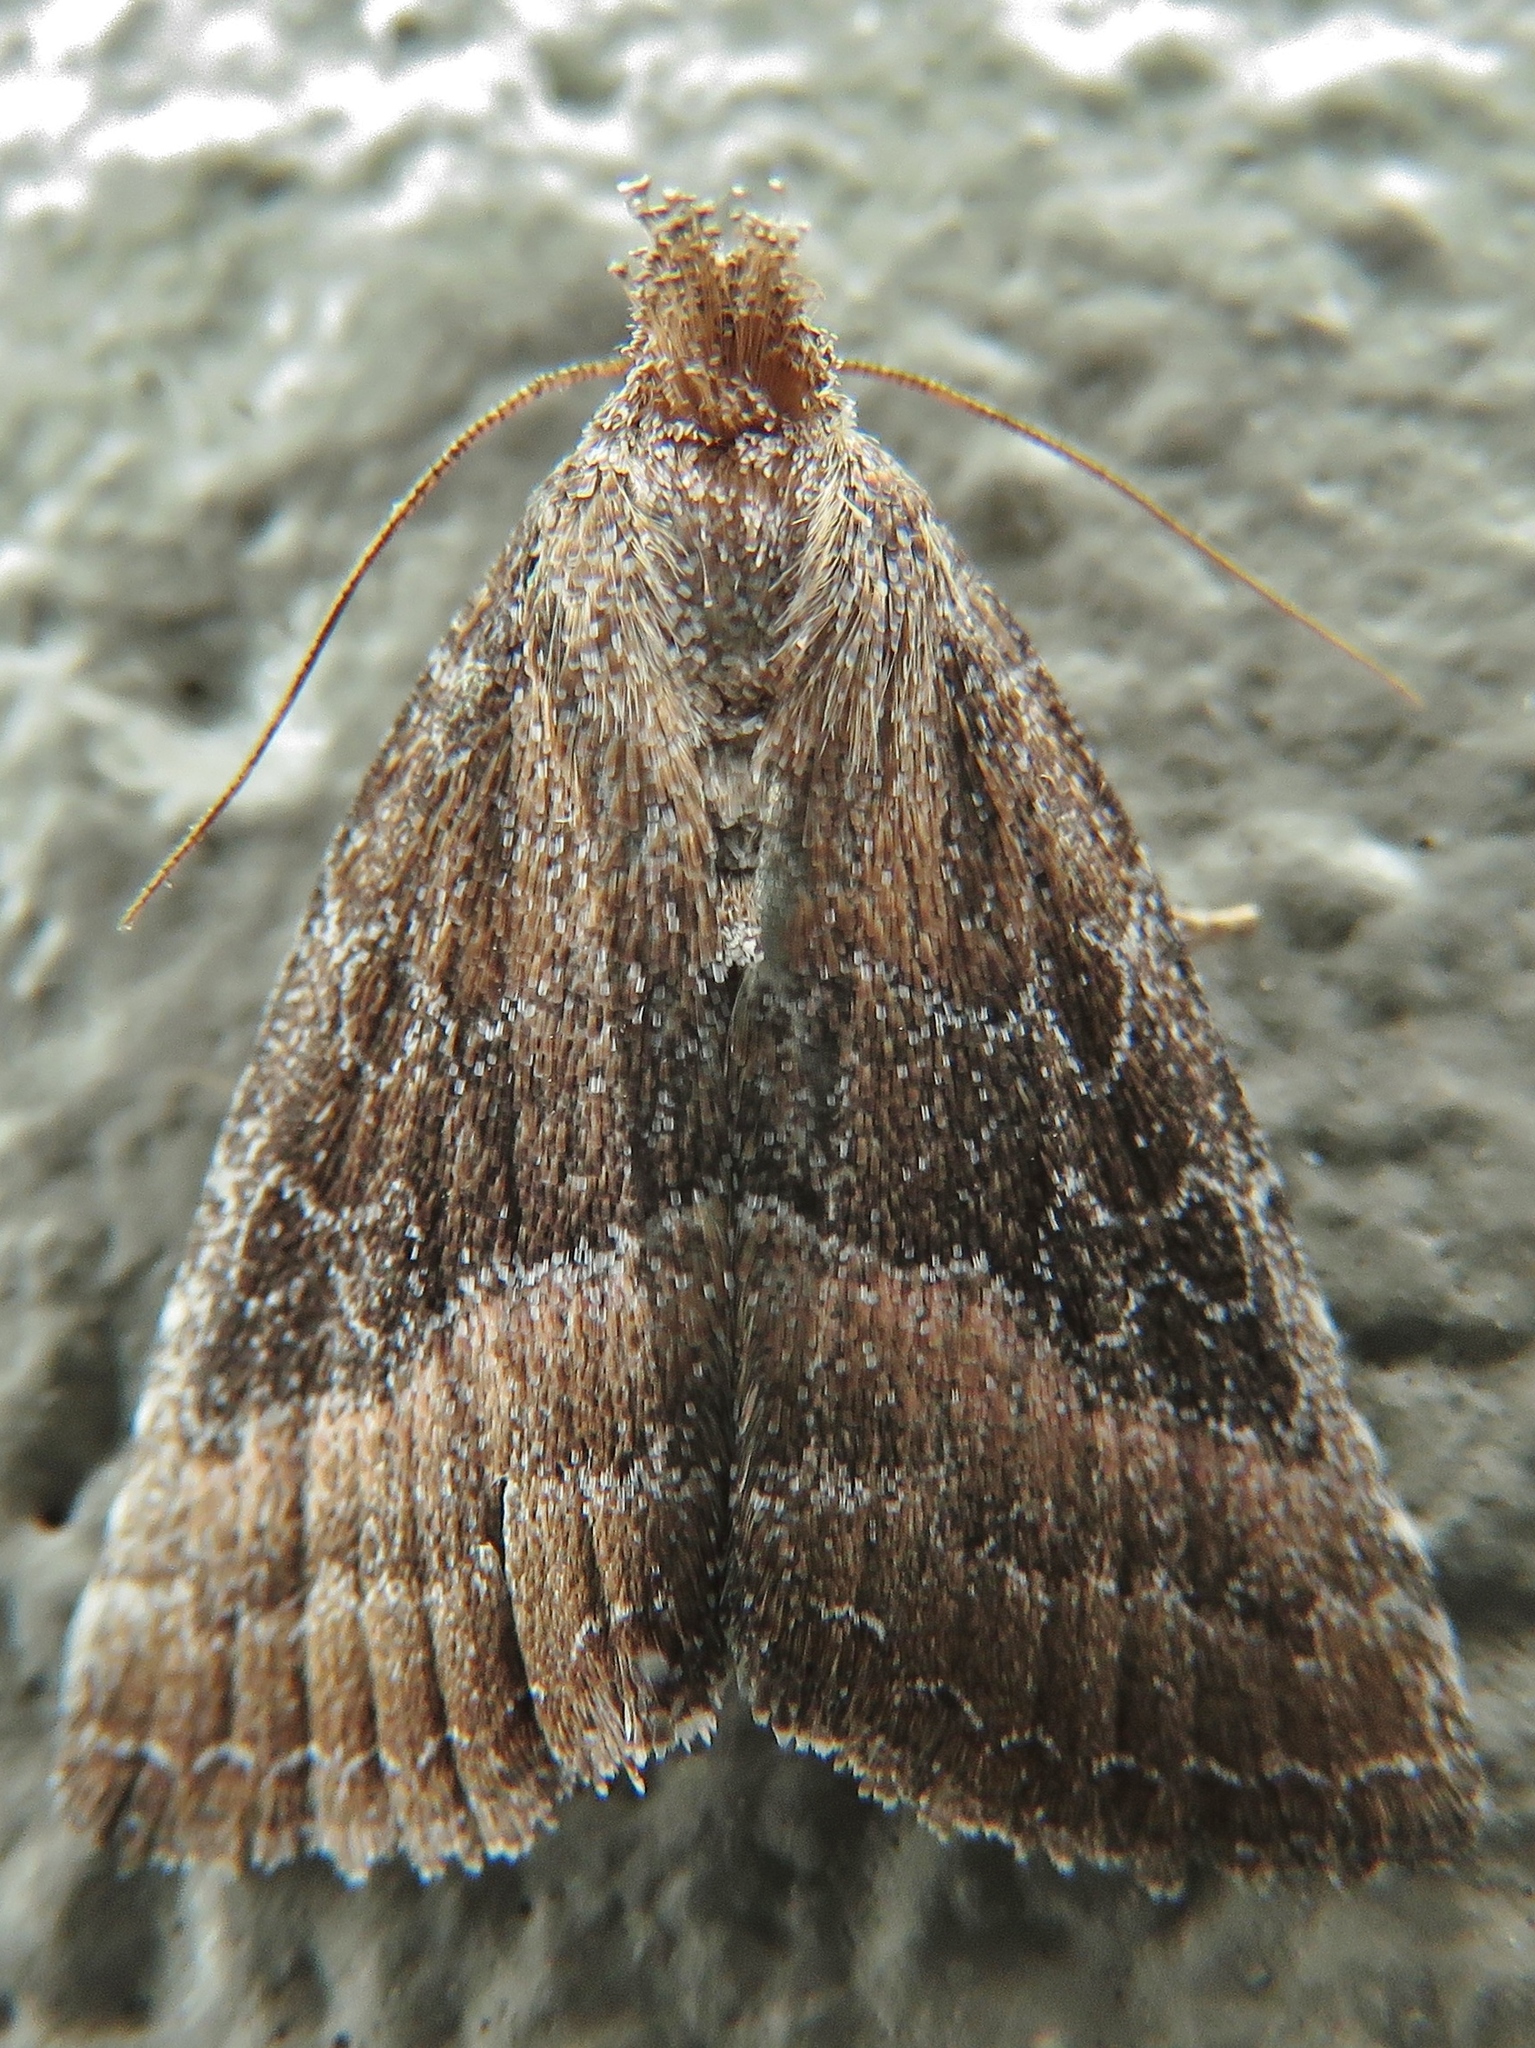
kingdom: Animalia
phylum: Arthropoda
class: Insecta
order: Lepidoptera
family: Noctuidae
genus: Ogdoconta
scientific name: Ogdoconta cinereola
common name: Common pinkband
